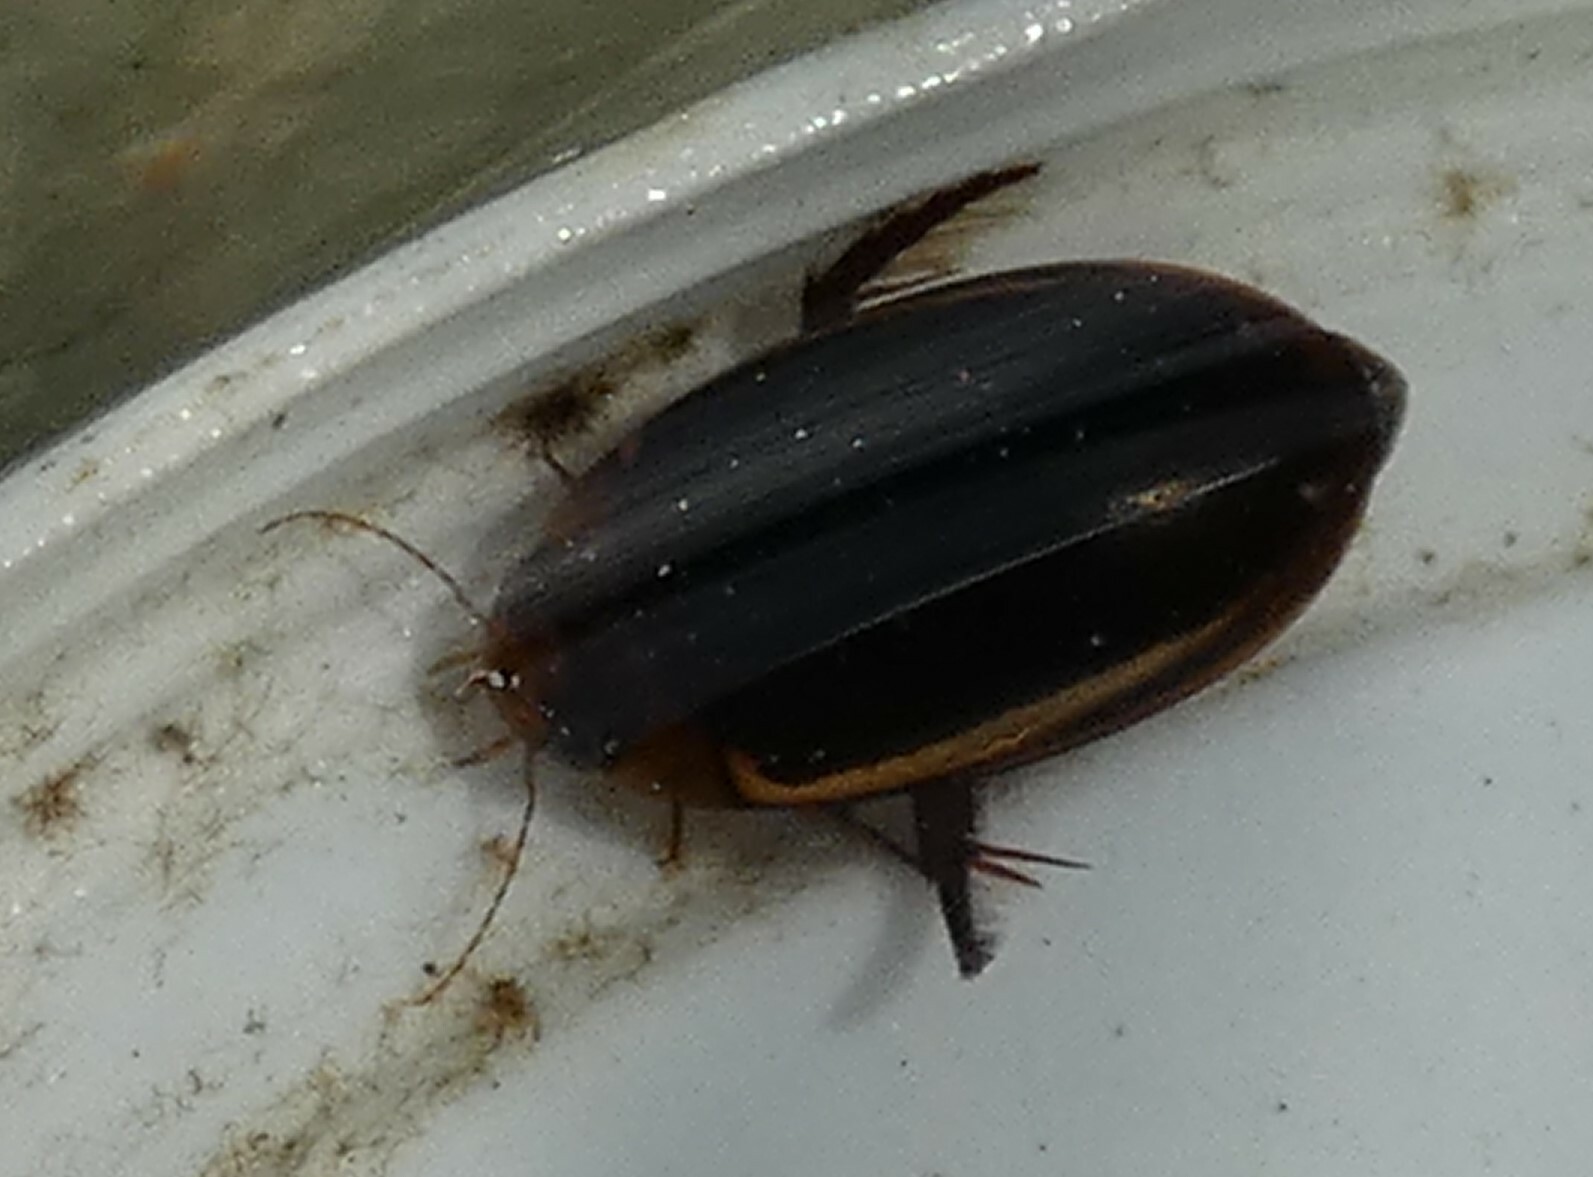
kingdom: Animalia
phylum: Arthropoda
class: Insecta
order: Coleoptera
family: Dytiscidae
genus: Hydaticus
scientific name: Hydaticus bimarginatus
